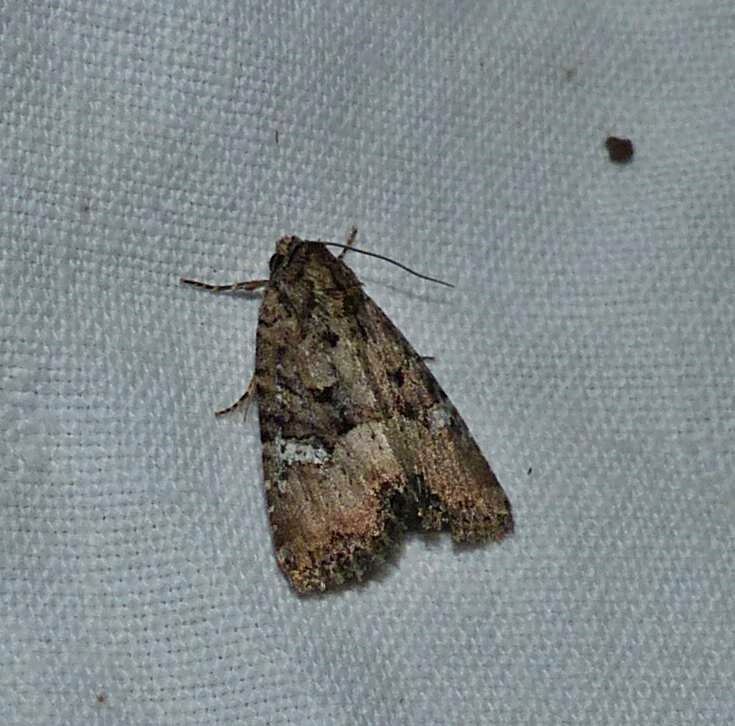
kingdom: Animalia
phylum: Arthropoda
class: Insecta
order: Lepidoptera
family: Noctuidae
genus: Mesapamea
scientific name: Mesapamea fractilinea
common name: Broken-lined brocade moth
